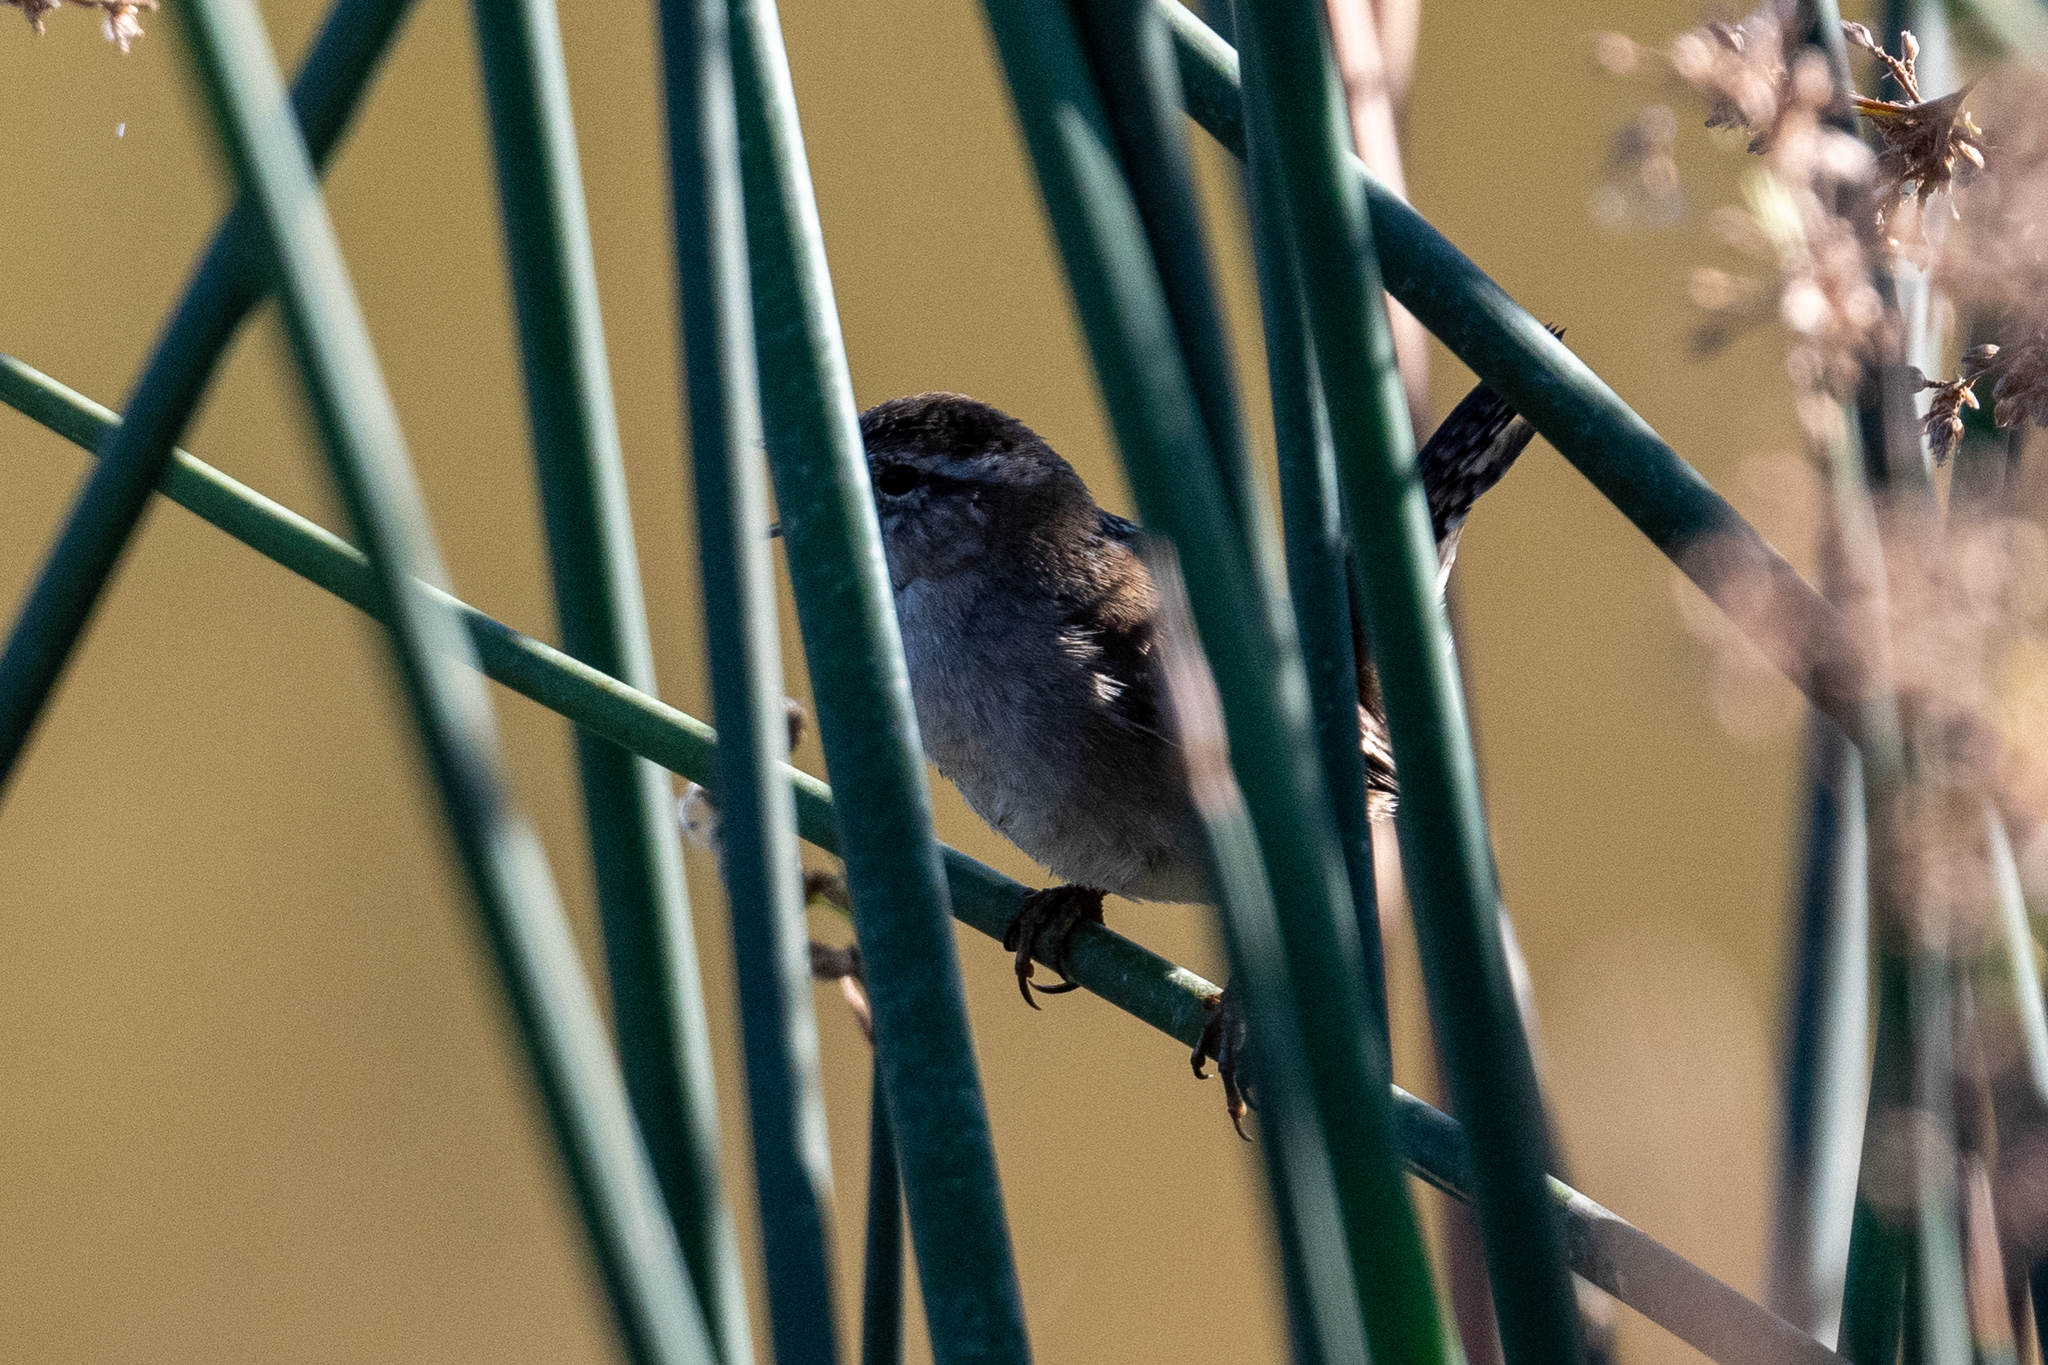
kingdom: Animalia
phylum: Chordata
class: Aves
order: Passeriformes
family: Troglodytidae
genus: Cistothorus
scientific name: Cistothorus palustris
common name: Marsh wren
